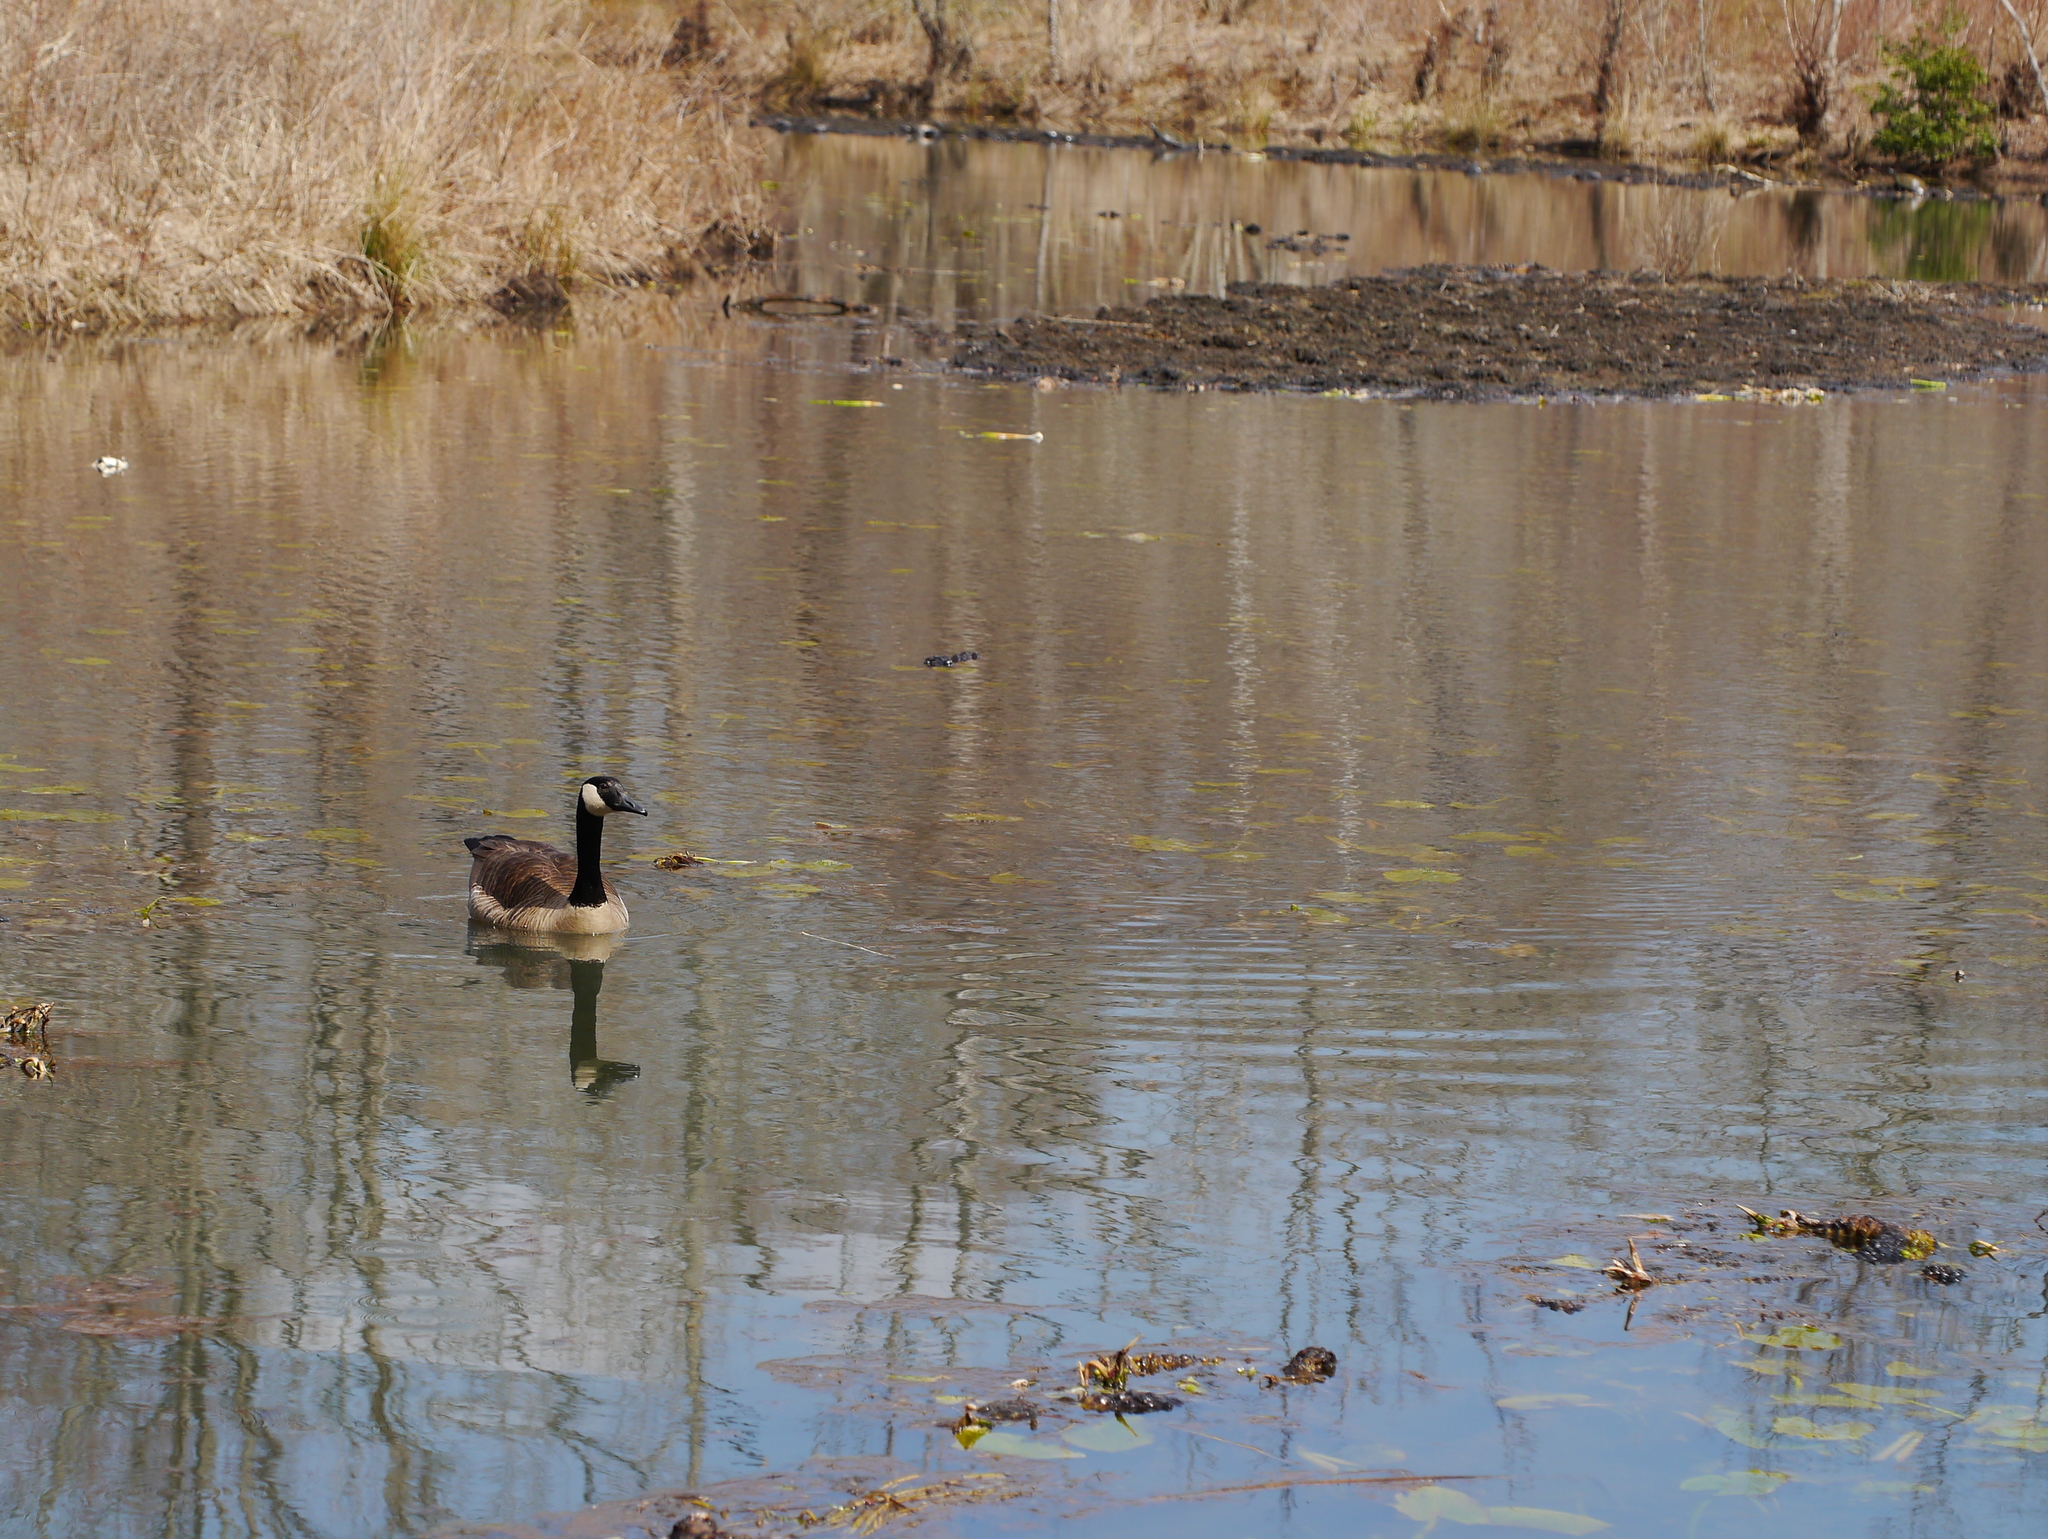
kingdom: Animalia
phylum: Chordata
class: Aves
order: Anseriformes
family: Anatidae
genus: Branta
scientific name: Branta canadensis
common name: Canada goose
